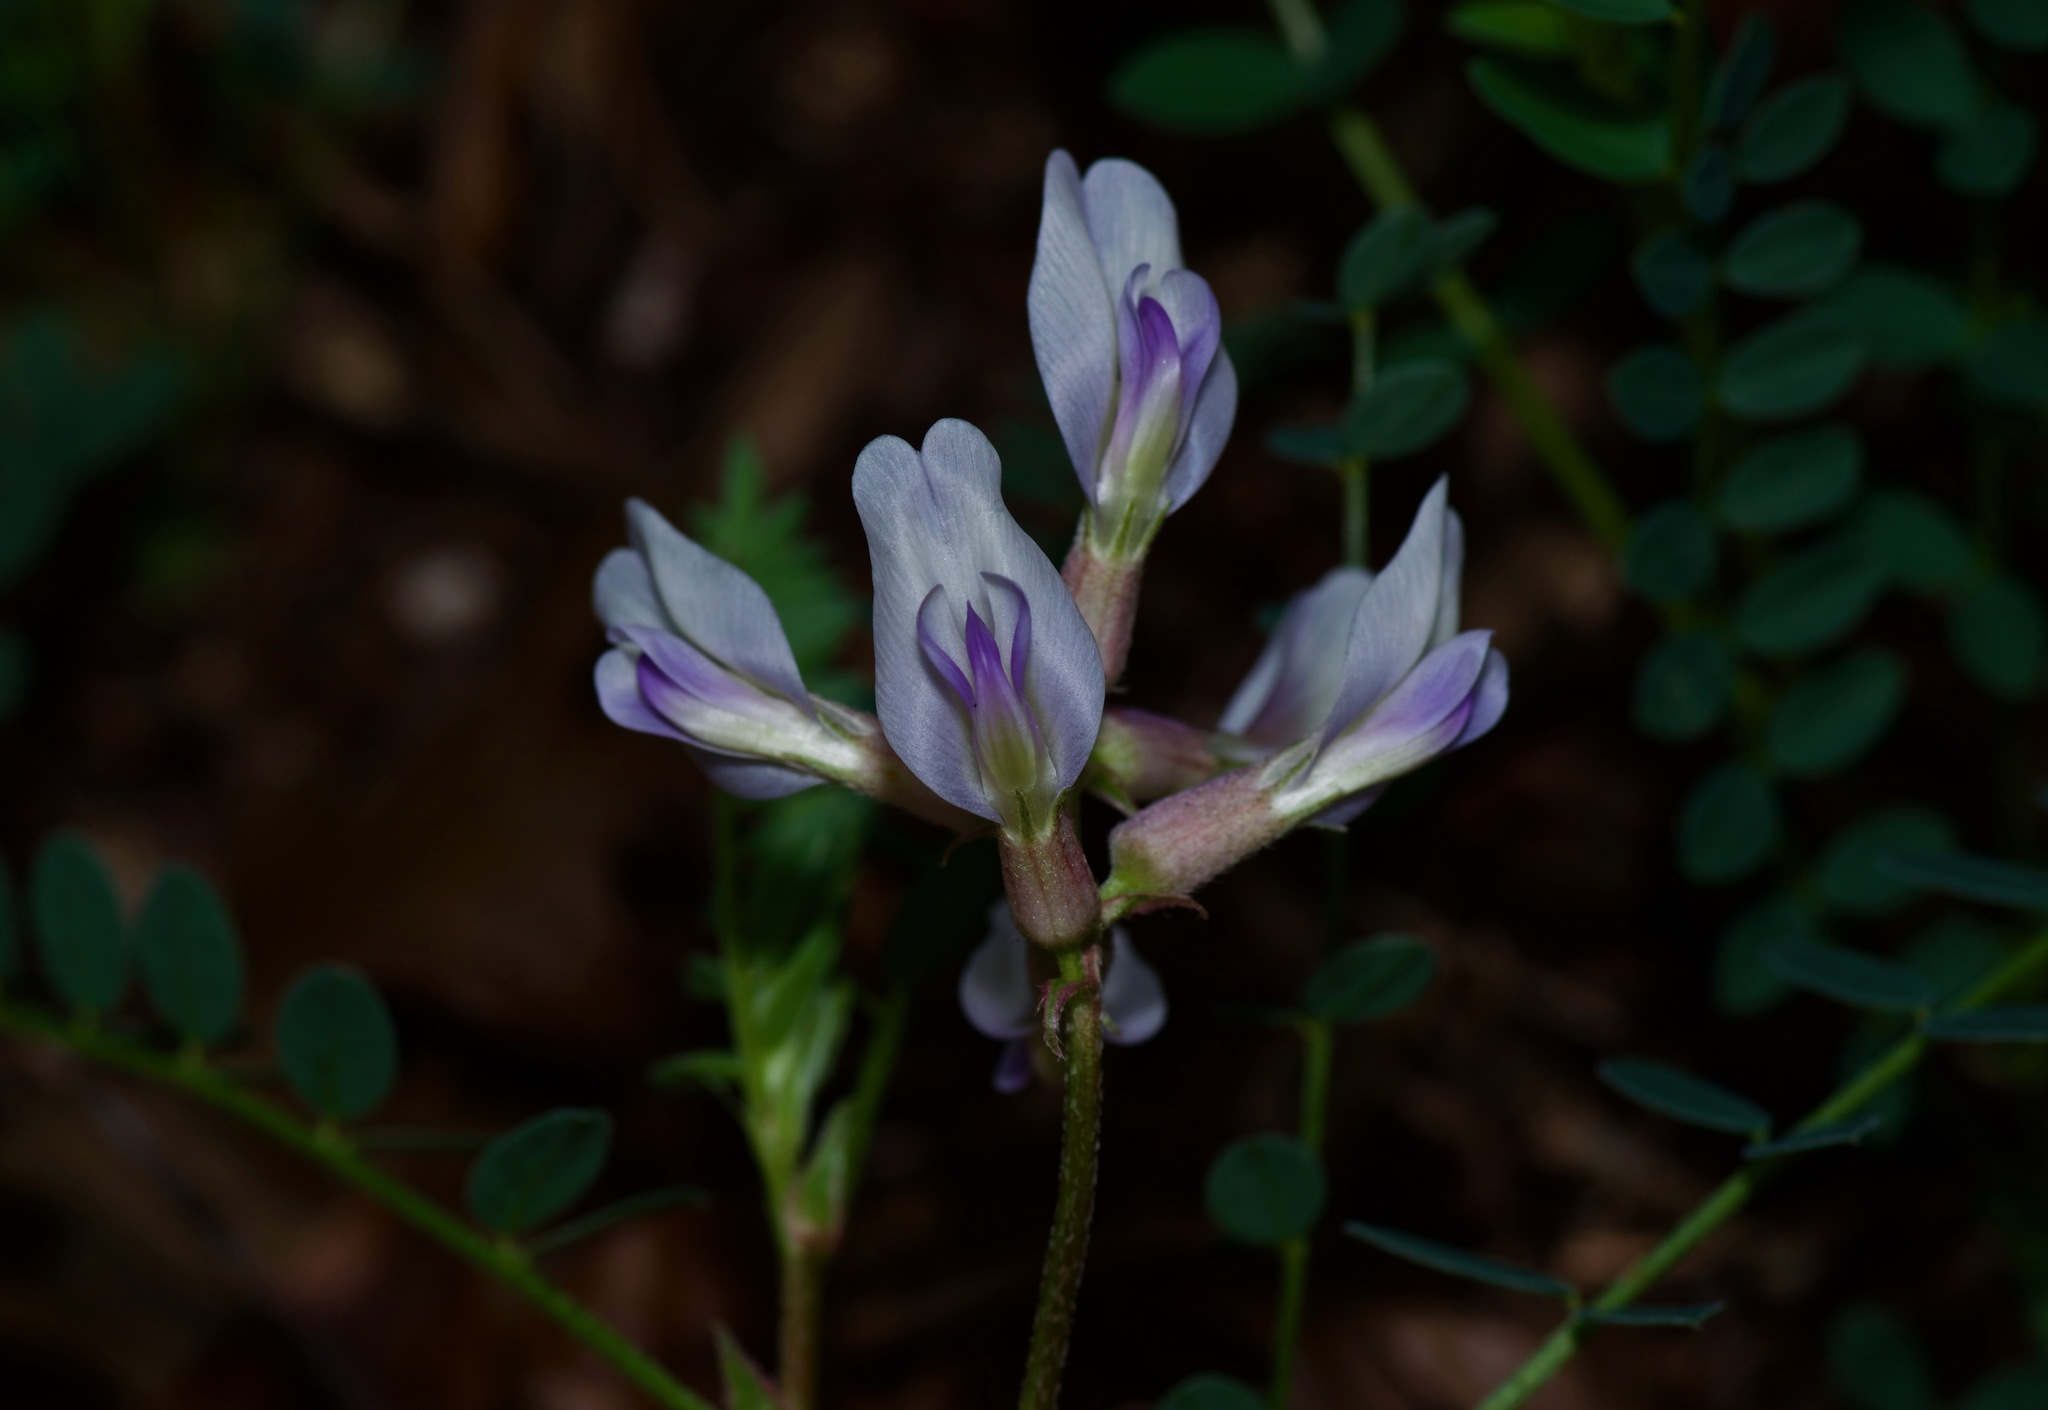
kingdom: Plantae
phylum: Tracheophyta
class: Magnoliopsida
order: Fabales
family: Fabaceae
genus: Astragalus
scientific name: Astragalus crassicarpus
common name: Ground-plum milk-vetch
